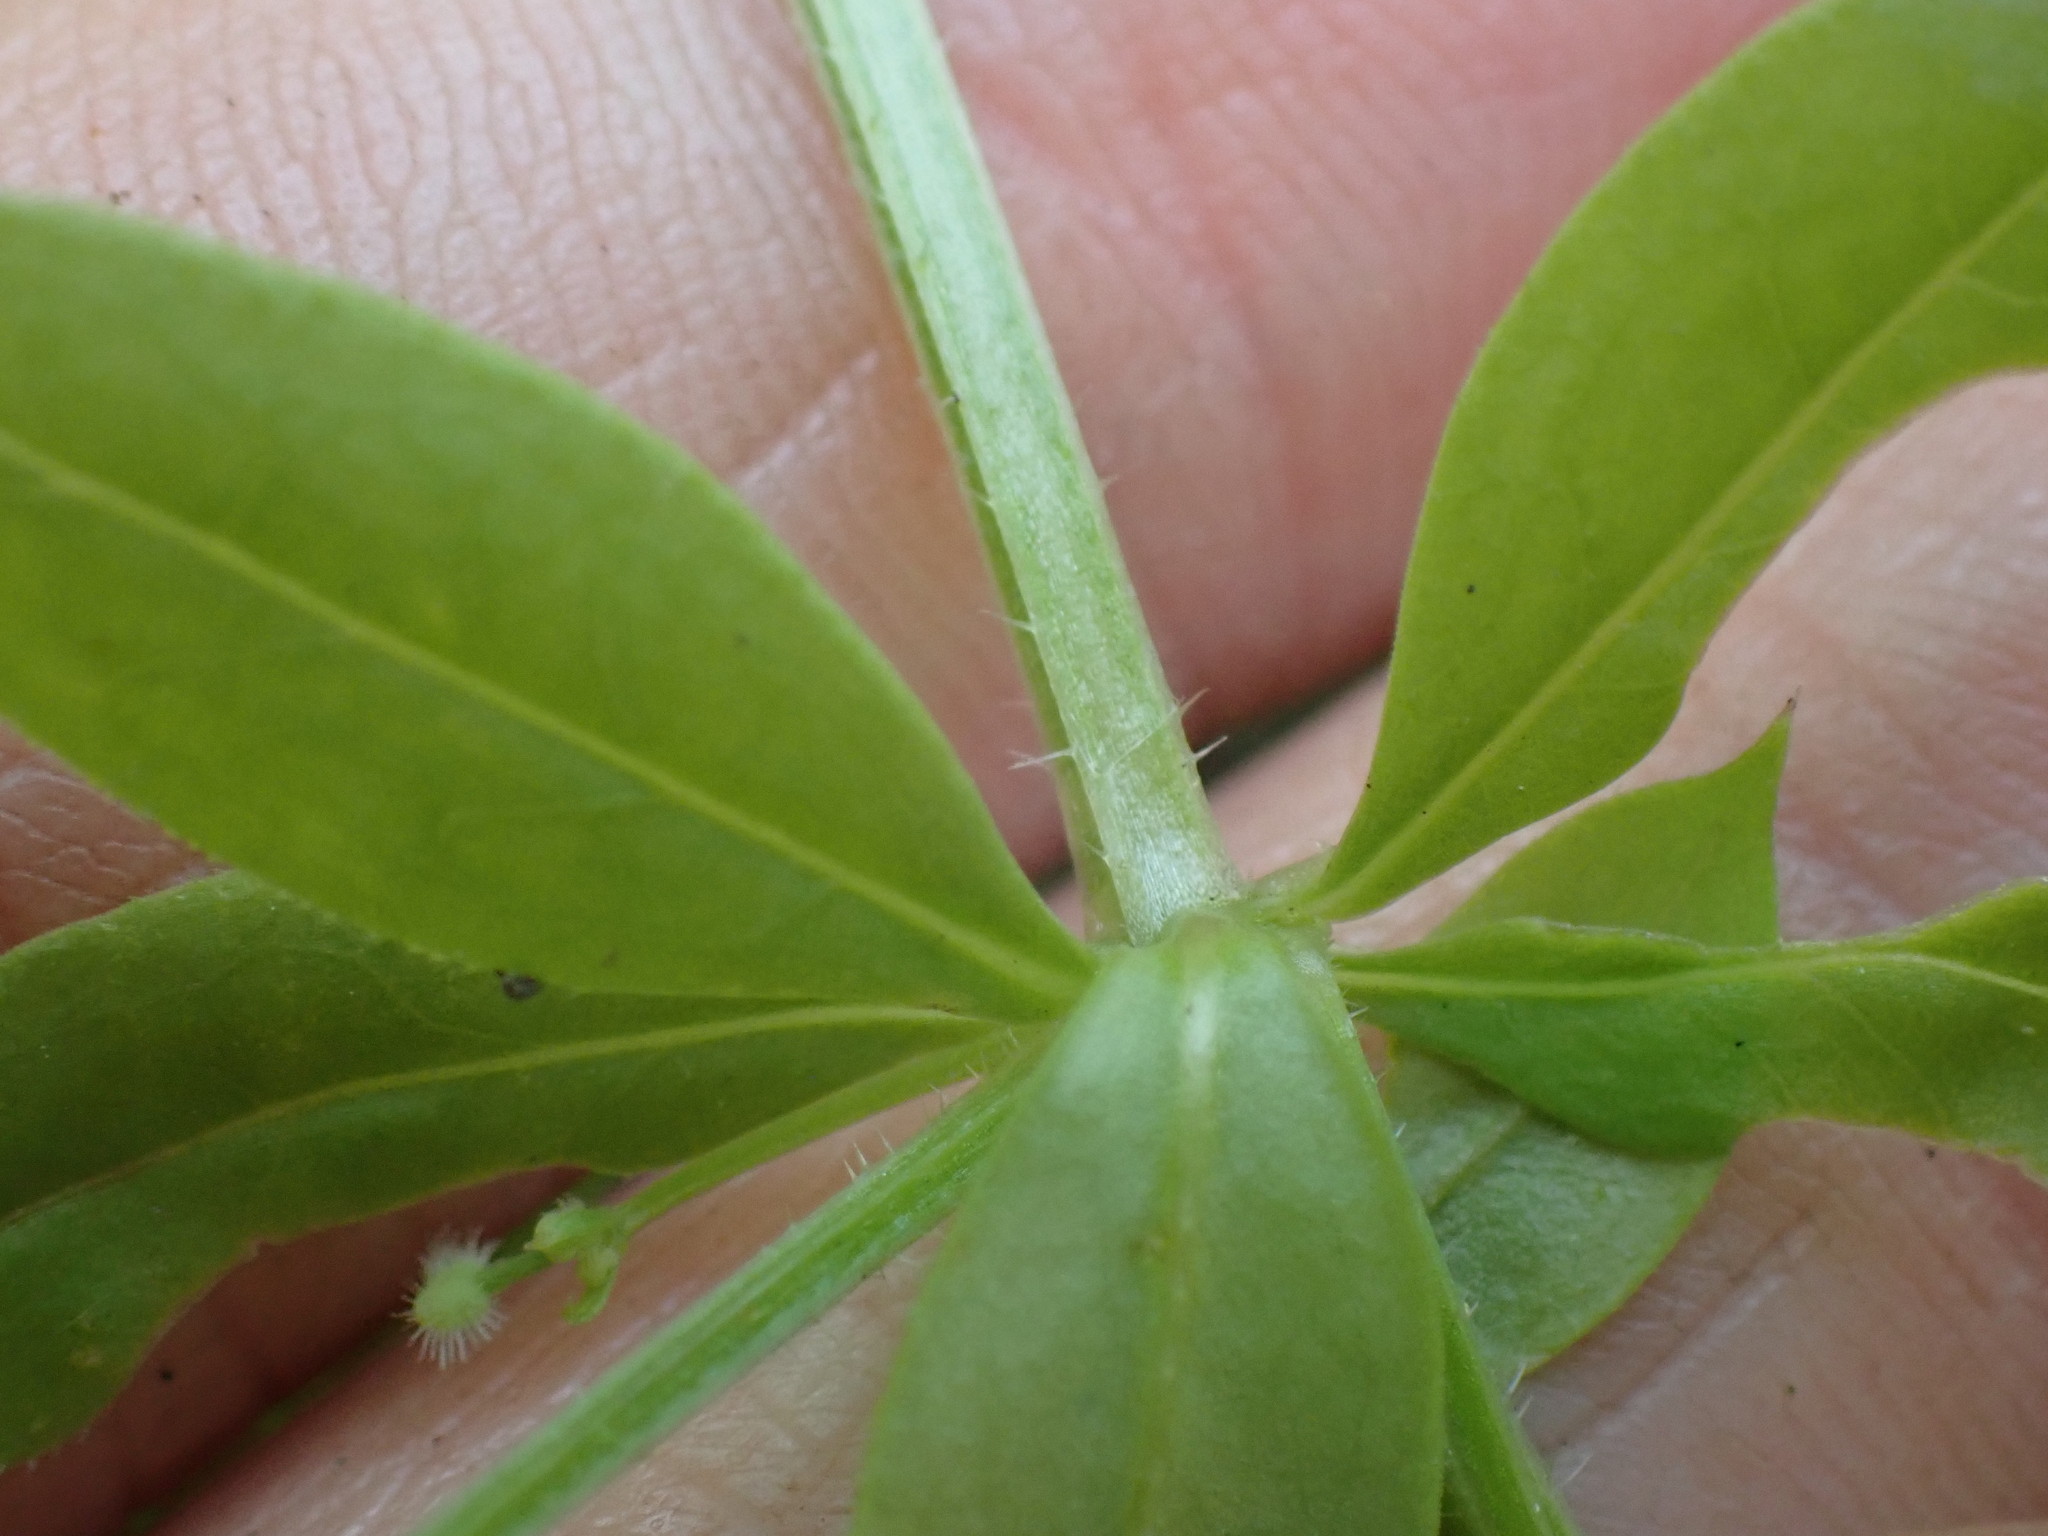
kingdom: Plantae
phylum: Tracheophyta
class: Magnoliopsida
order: Gentianales
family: Rubiaceae
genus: Galium
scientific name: Galium triflorum
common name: Fragrant bedstraw
